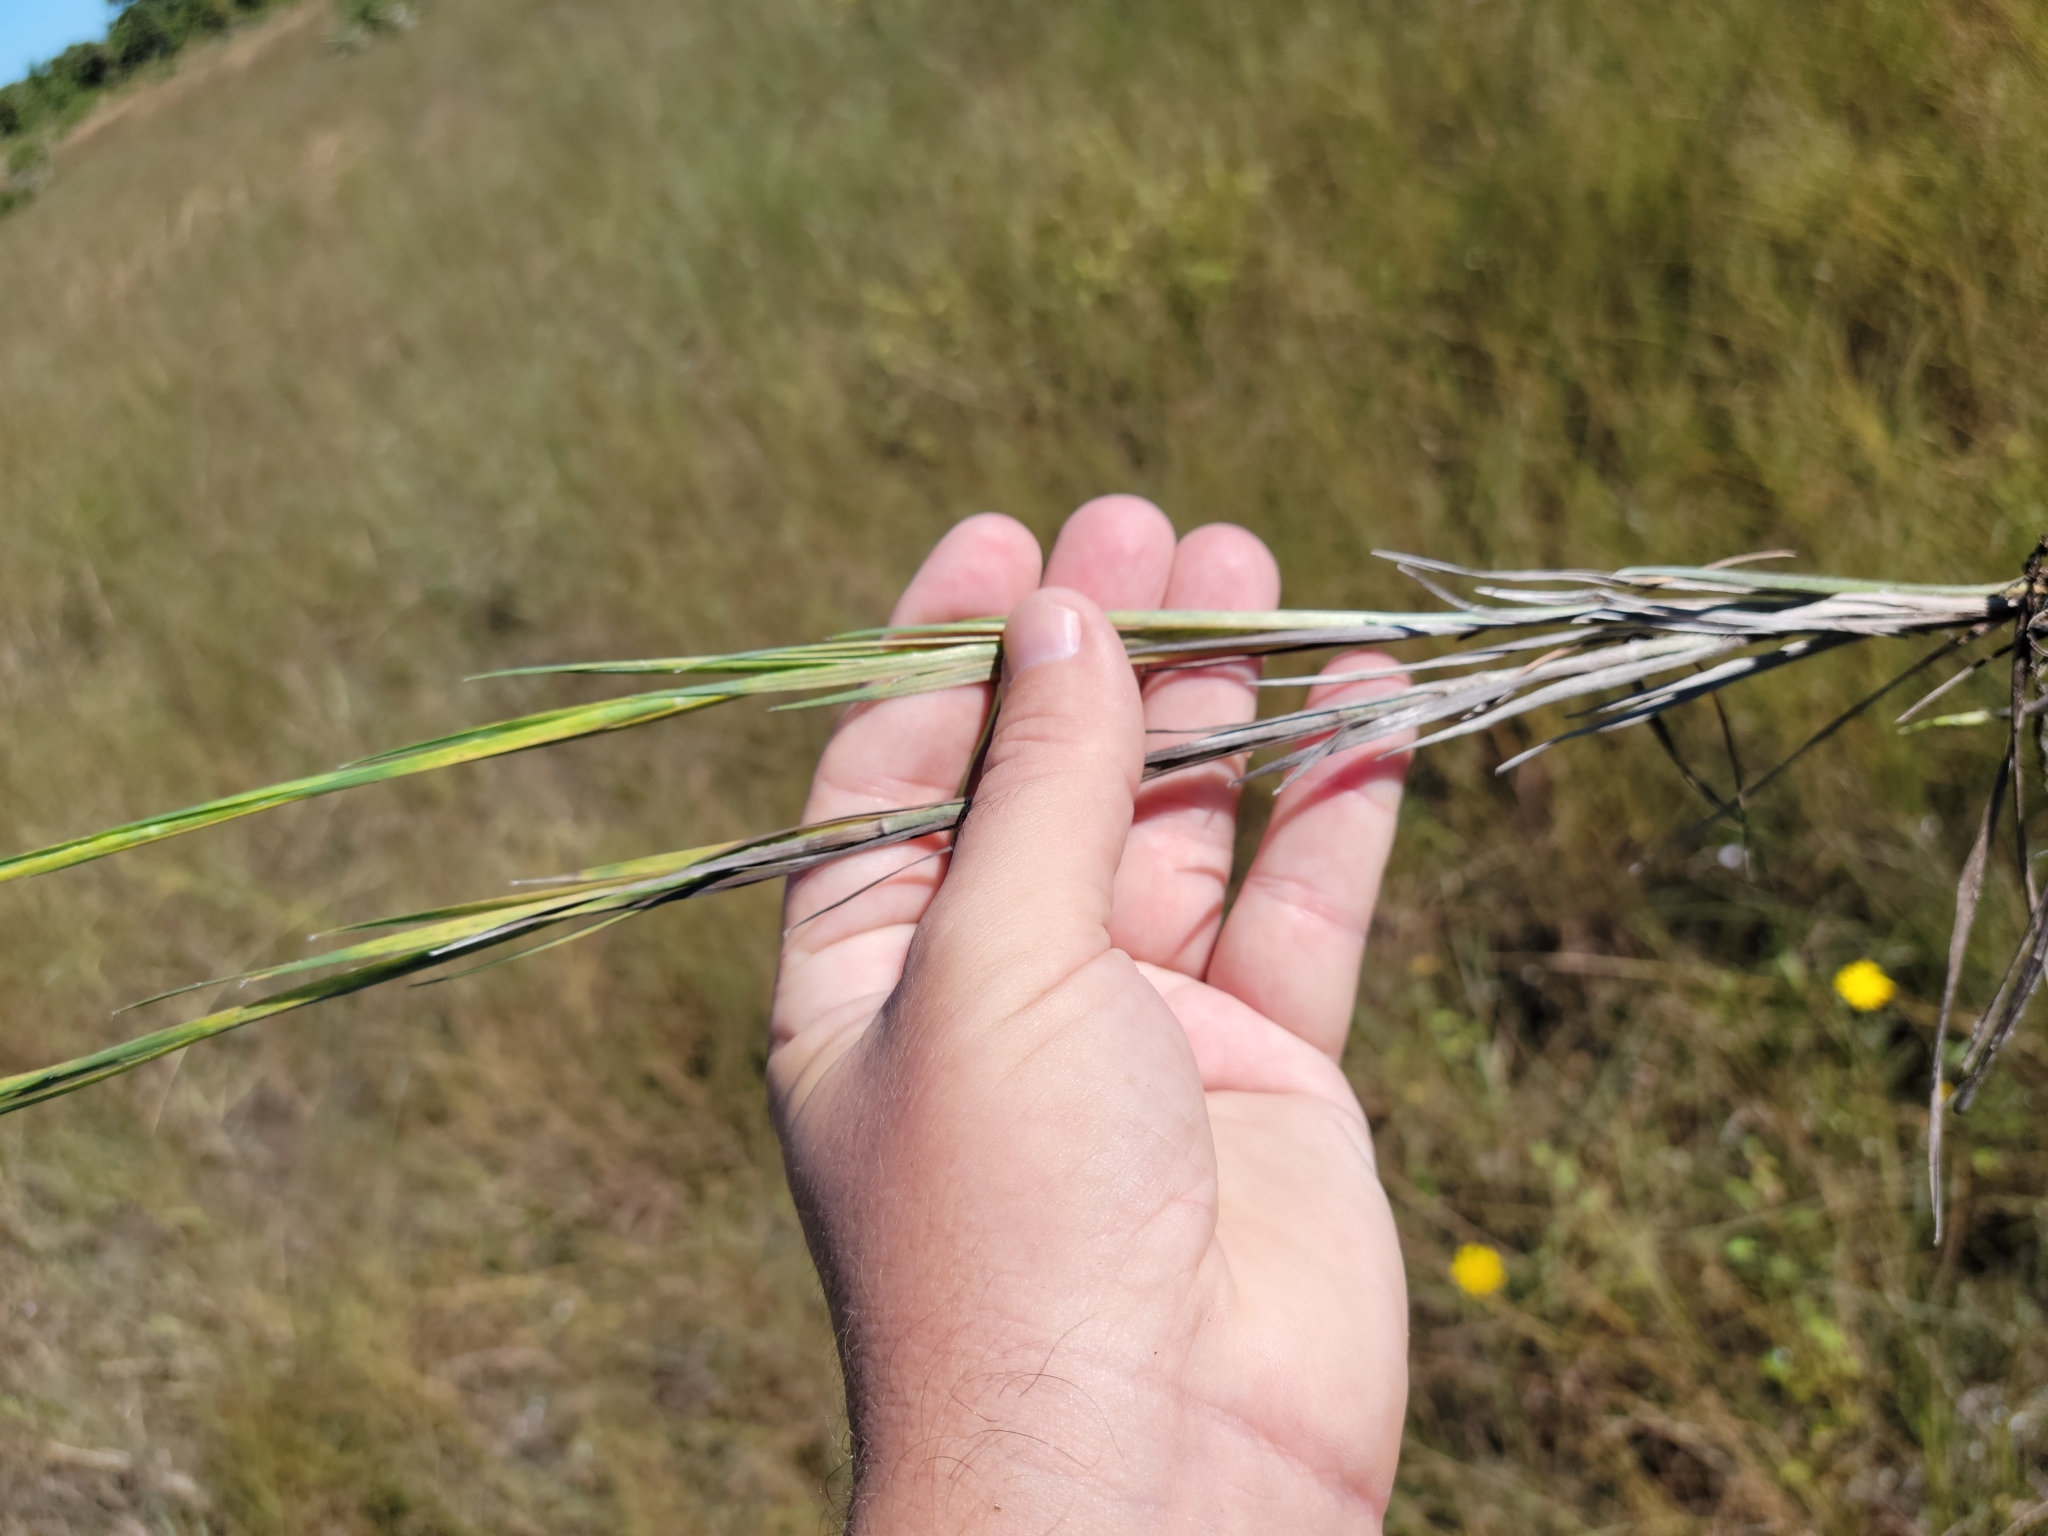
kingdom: Plantae
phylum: Tracheophyta
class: Magnoliopsida
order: Asterales
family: Asteraceae
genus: Pityopsis
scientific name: Pityopsis tracyi
